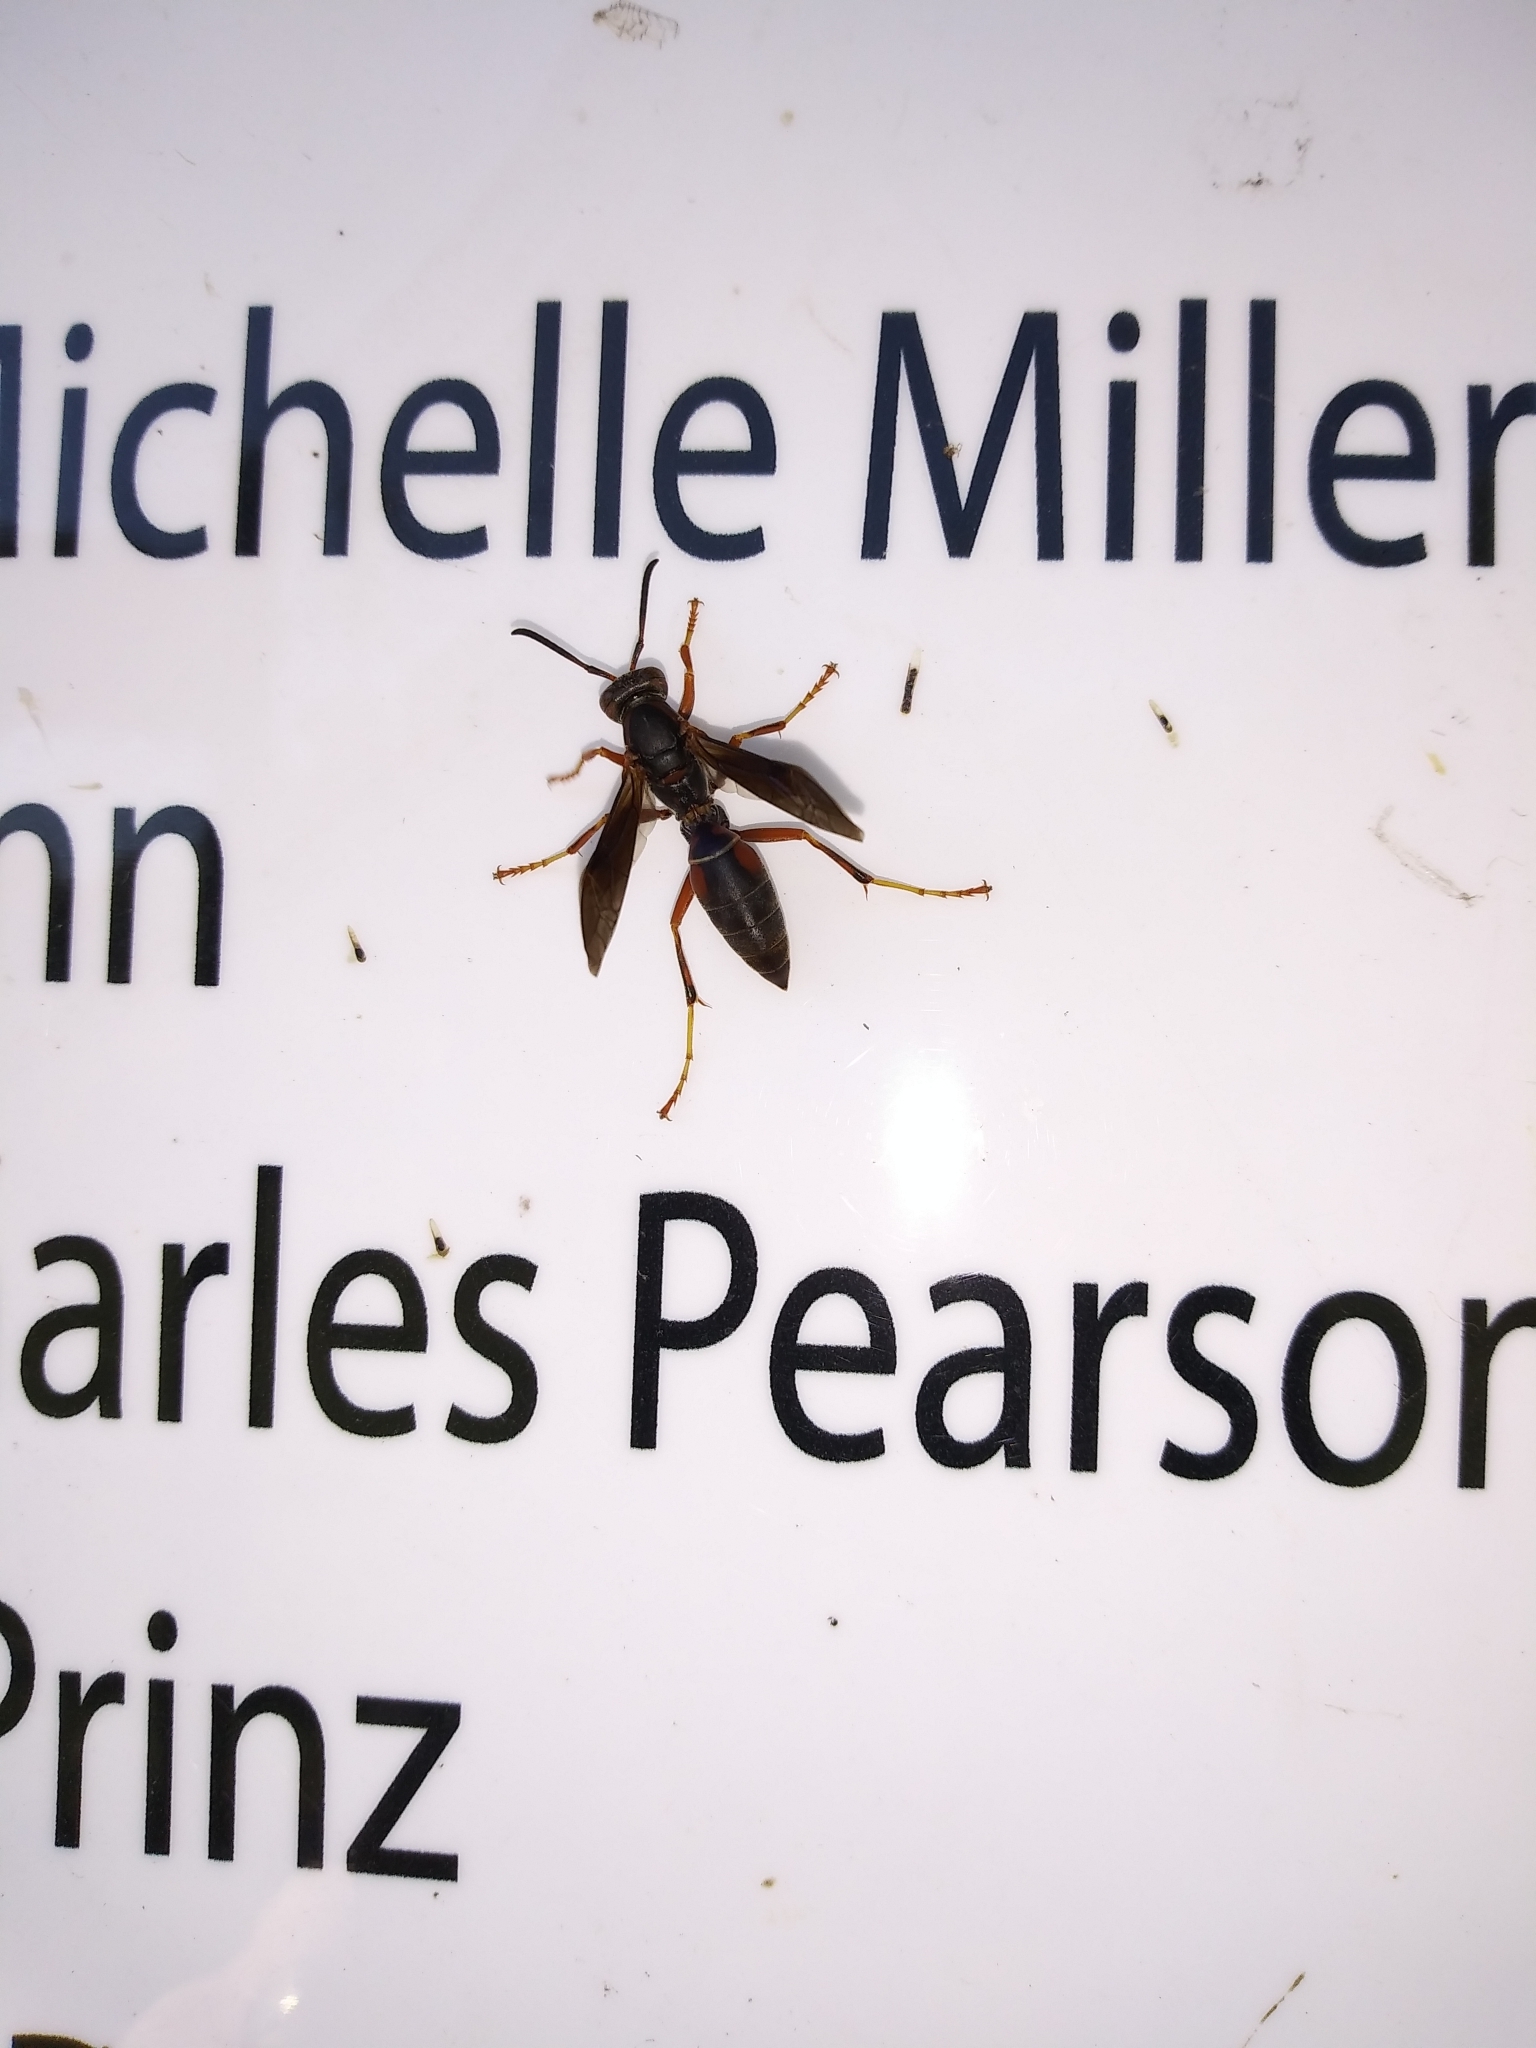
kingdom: Animalia
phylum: Arthropoda
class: Insecta
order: Hymenoptera
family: Eumenidae
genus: Polistes
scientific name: Polistes fuscatus
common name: Dark paper wasp
